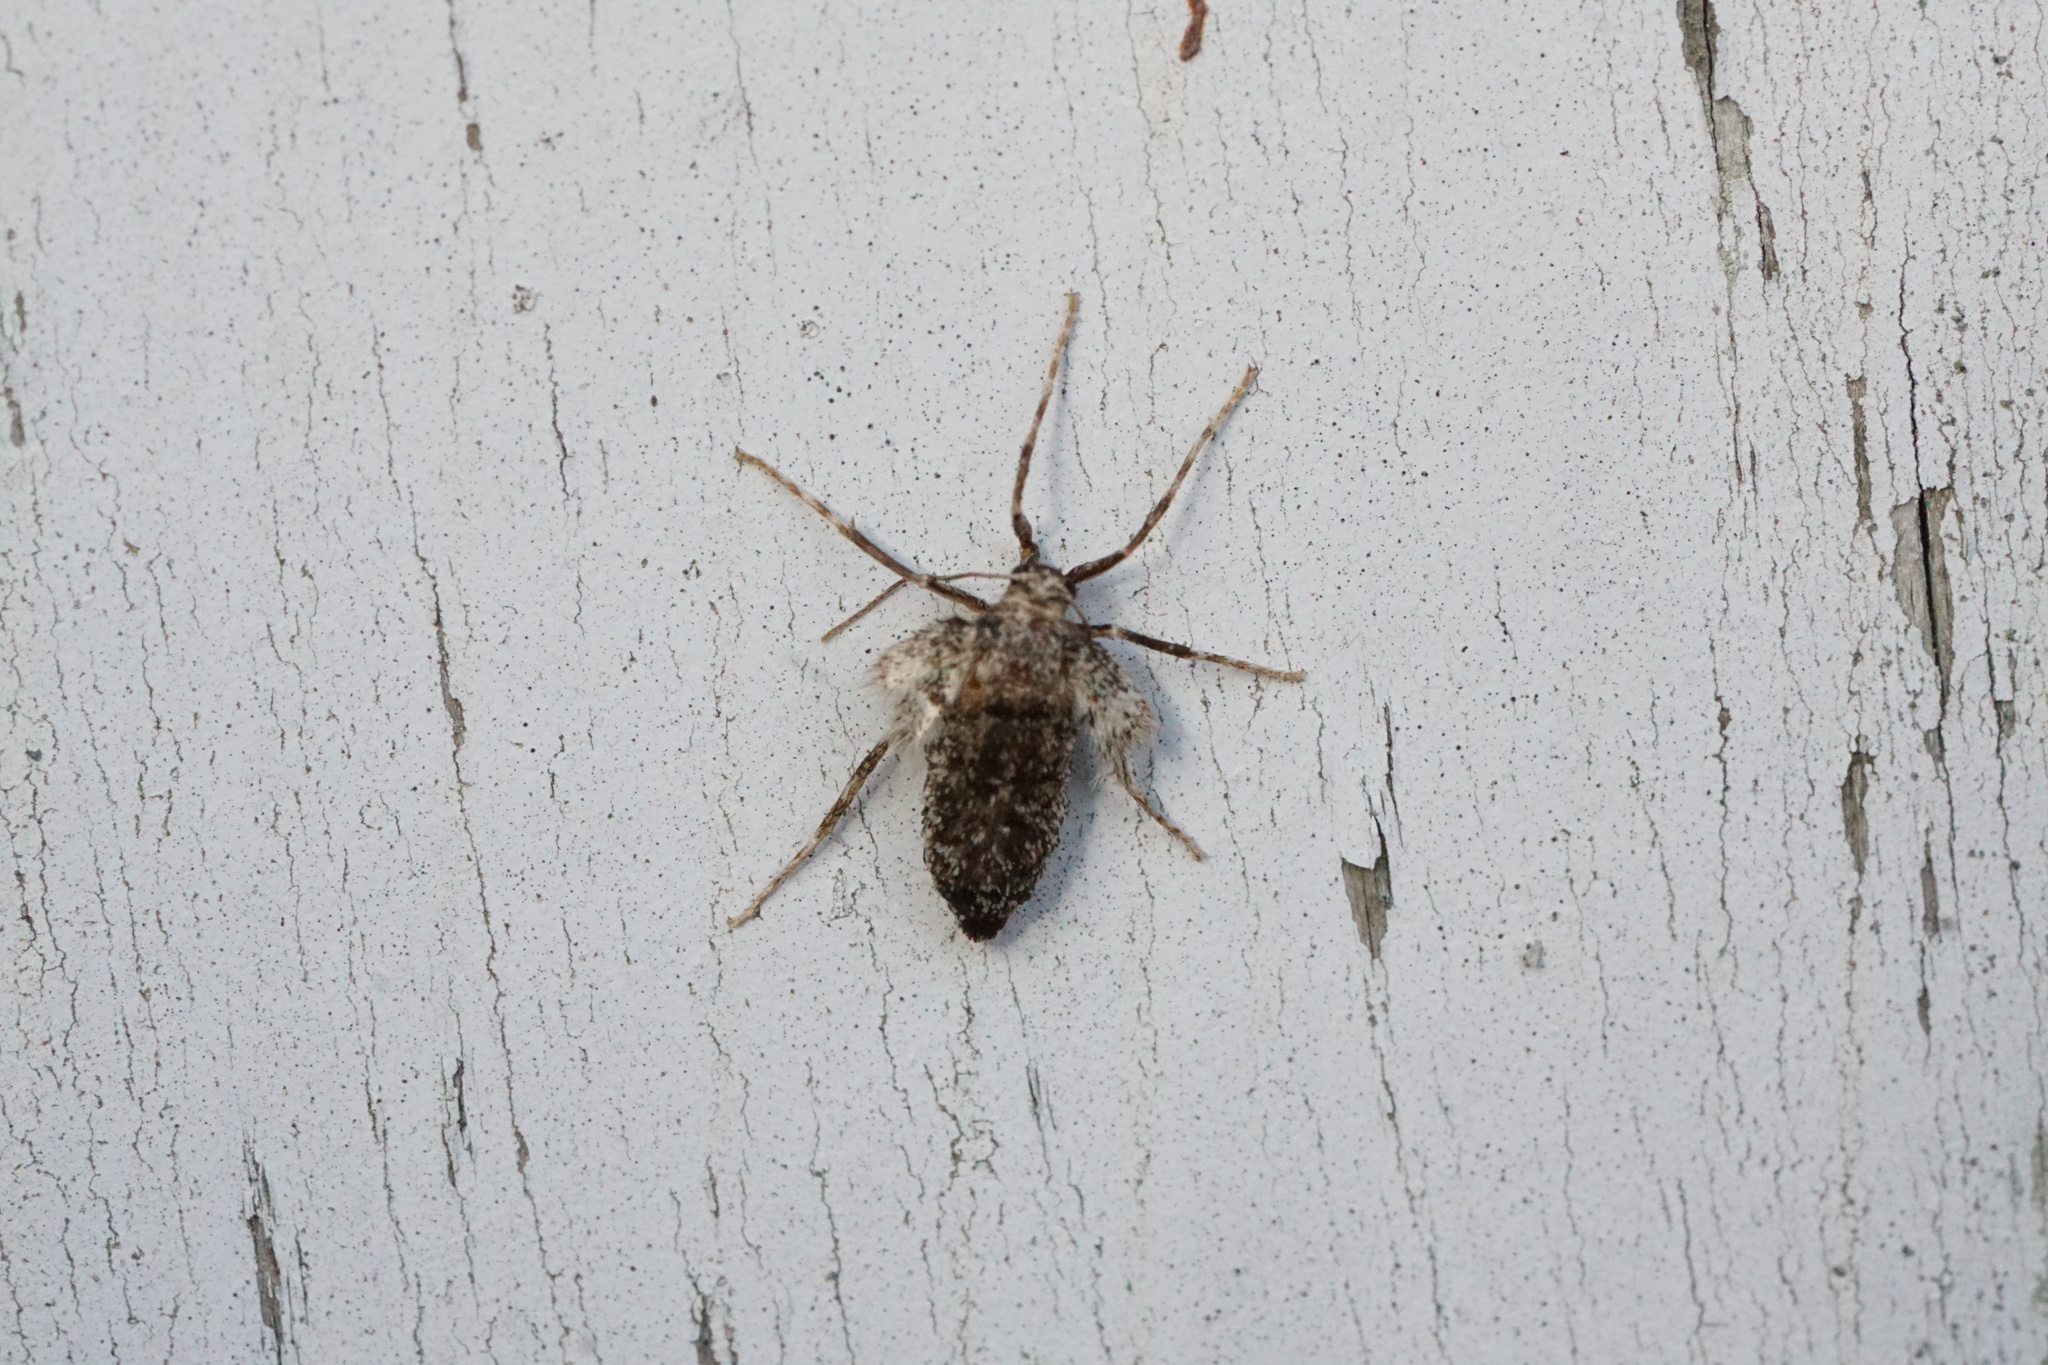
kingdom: Animalia
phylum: Arthropoda
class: Insecta
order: Lepidoptera
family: Geometridae
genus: Operophtera
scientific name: Operophtera brumata
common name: Winter moth
